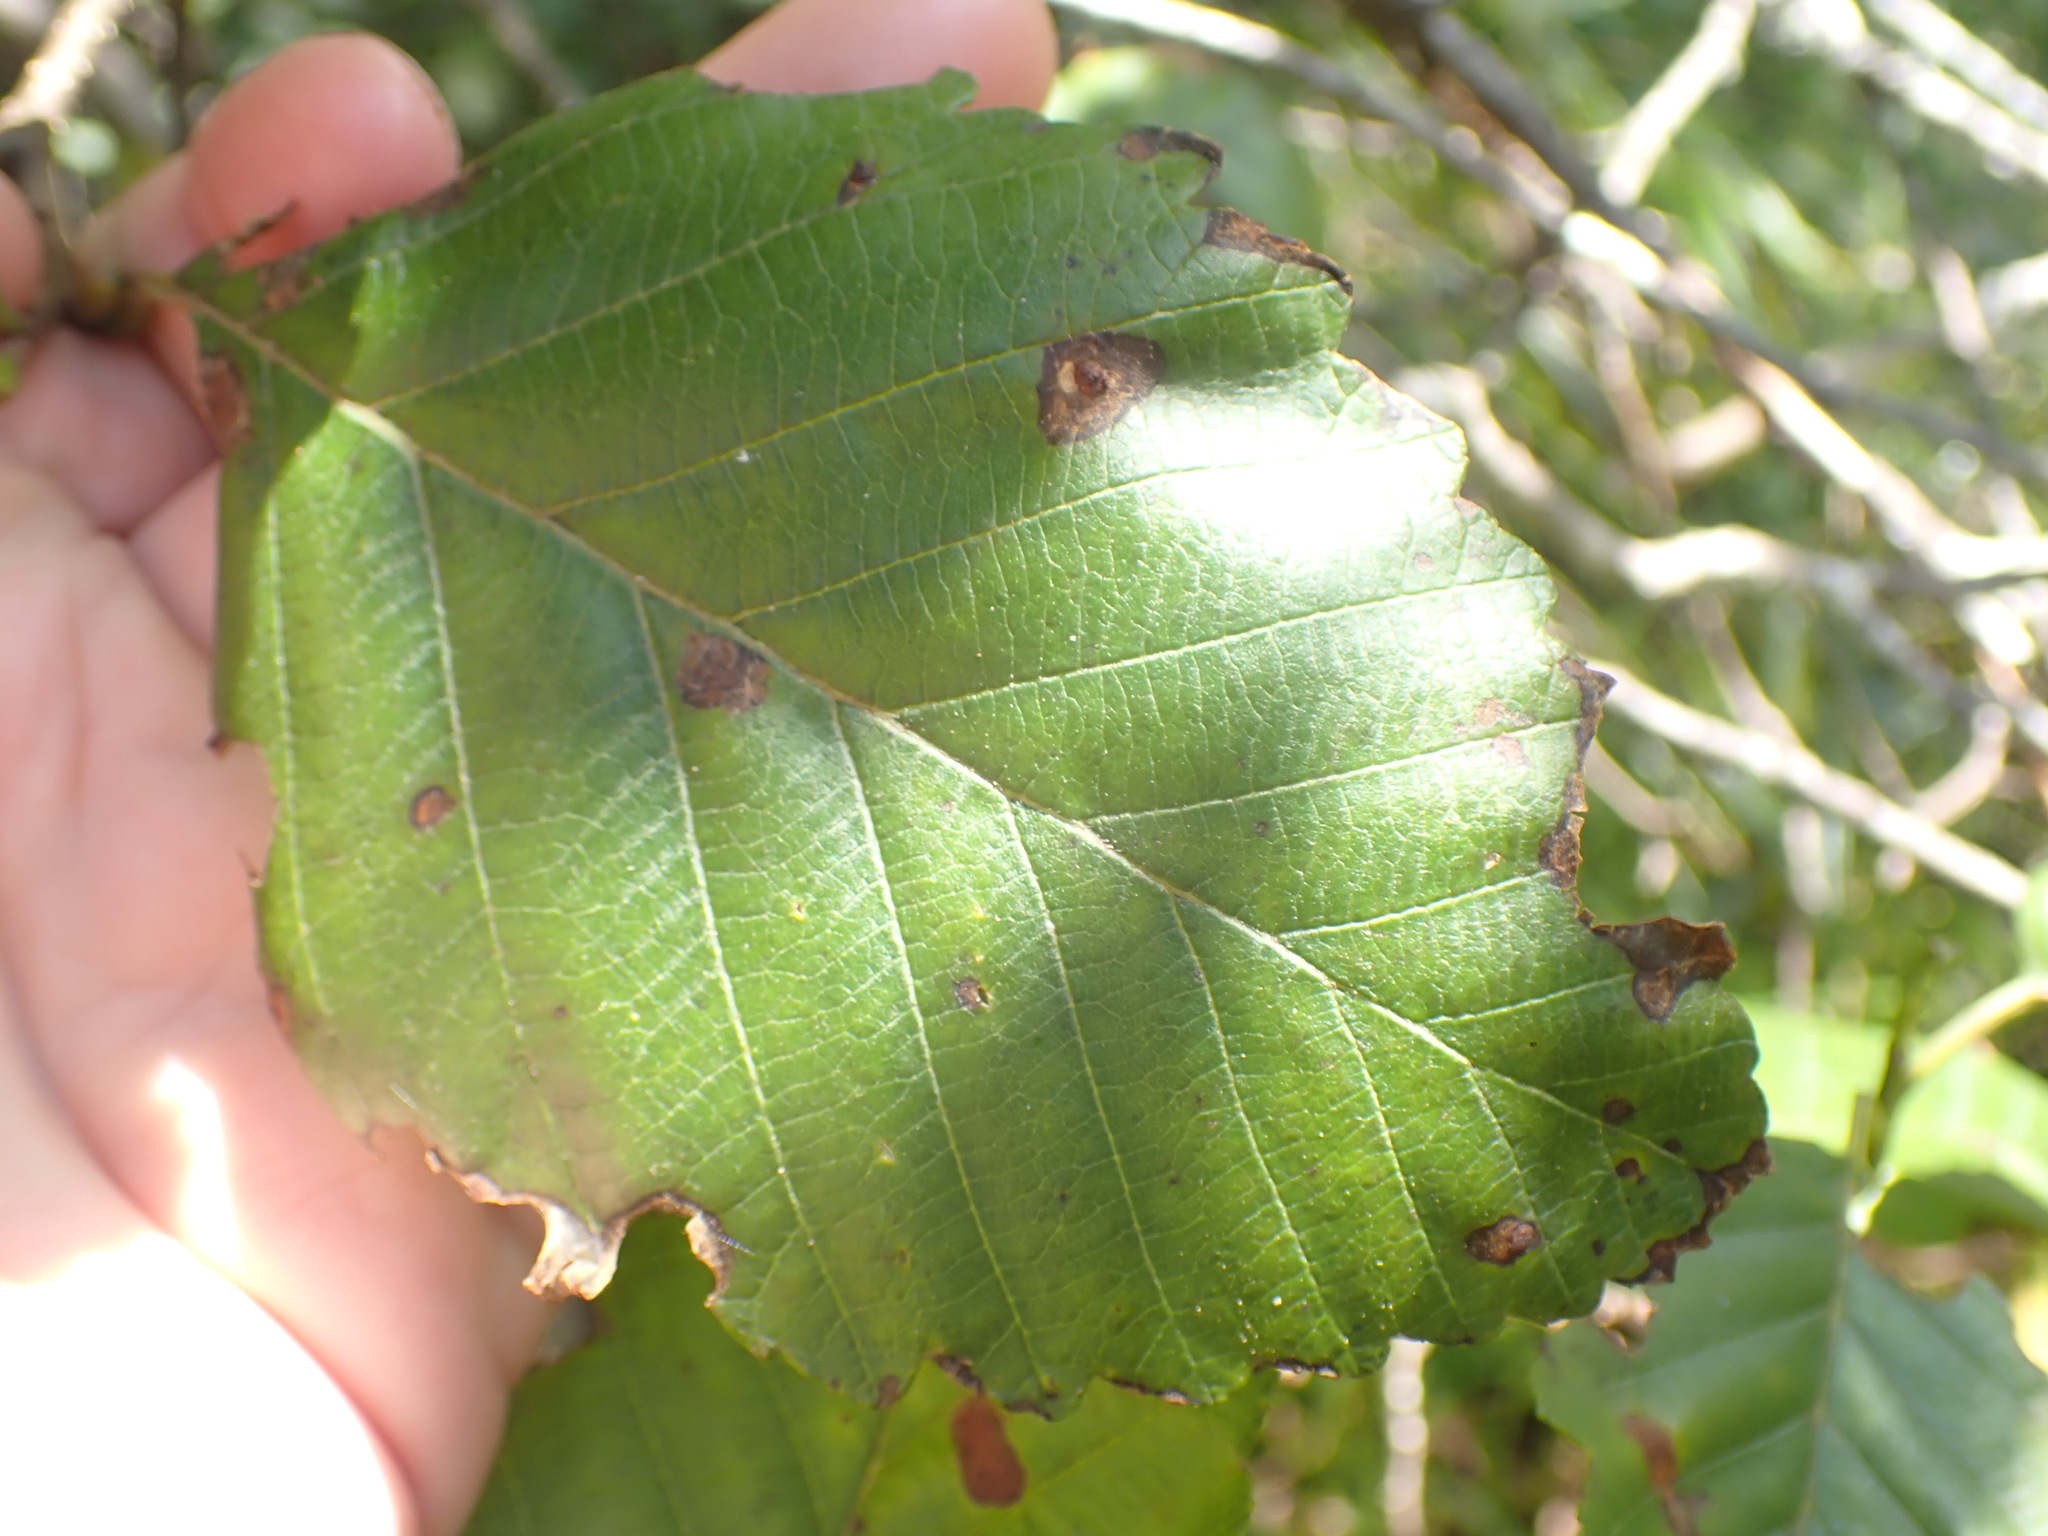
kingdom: Plantae
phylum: Tracheophyta
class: Magnoliopsida
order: Fagales
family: Betulaceae
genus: Alnus
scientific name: Alnus rubra
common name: Red alder
